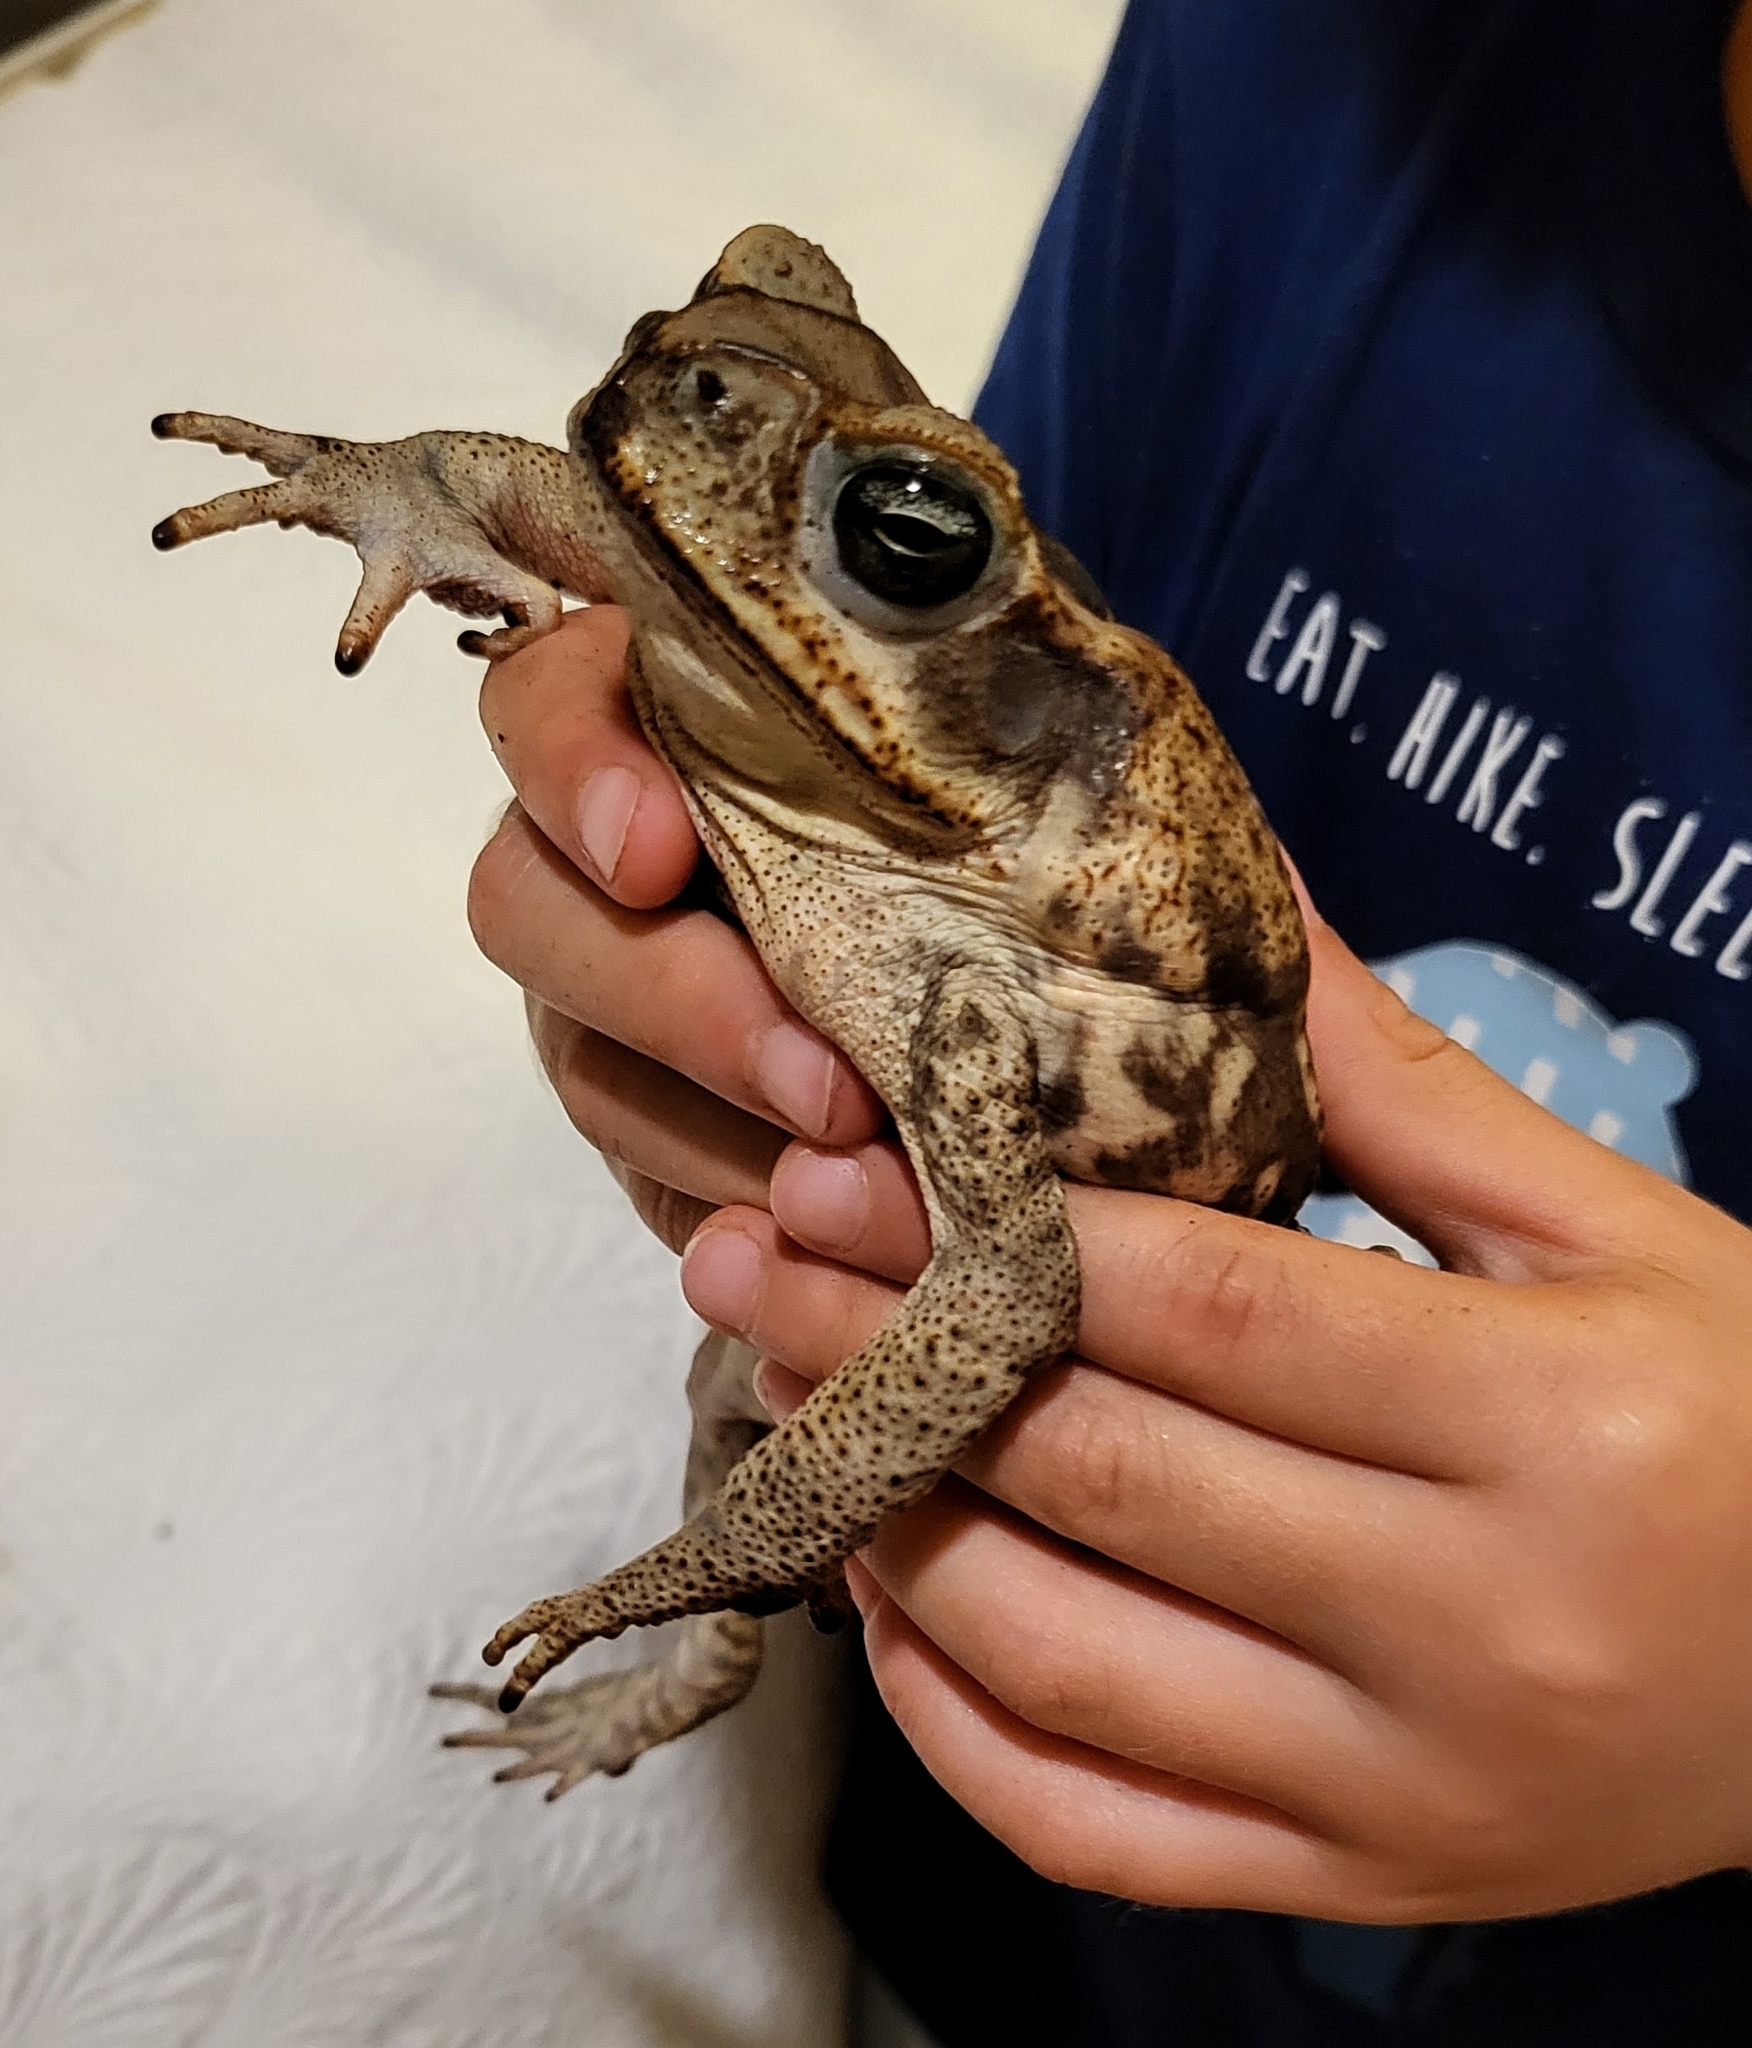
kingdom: Animalia
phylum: Chordata
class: Amphibia
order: Anura
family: Bufonidae
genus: Rhinella
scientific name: Rhinella horribilis
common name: Mesoamerican cane toad
